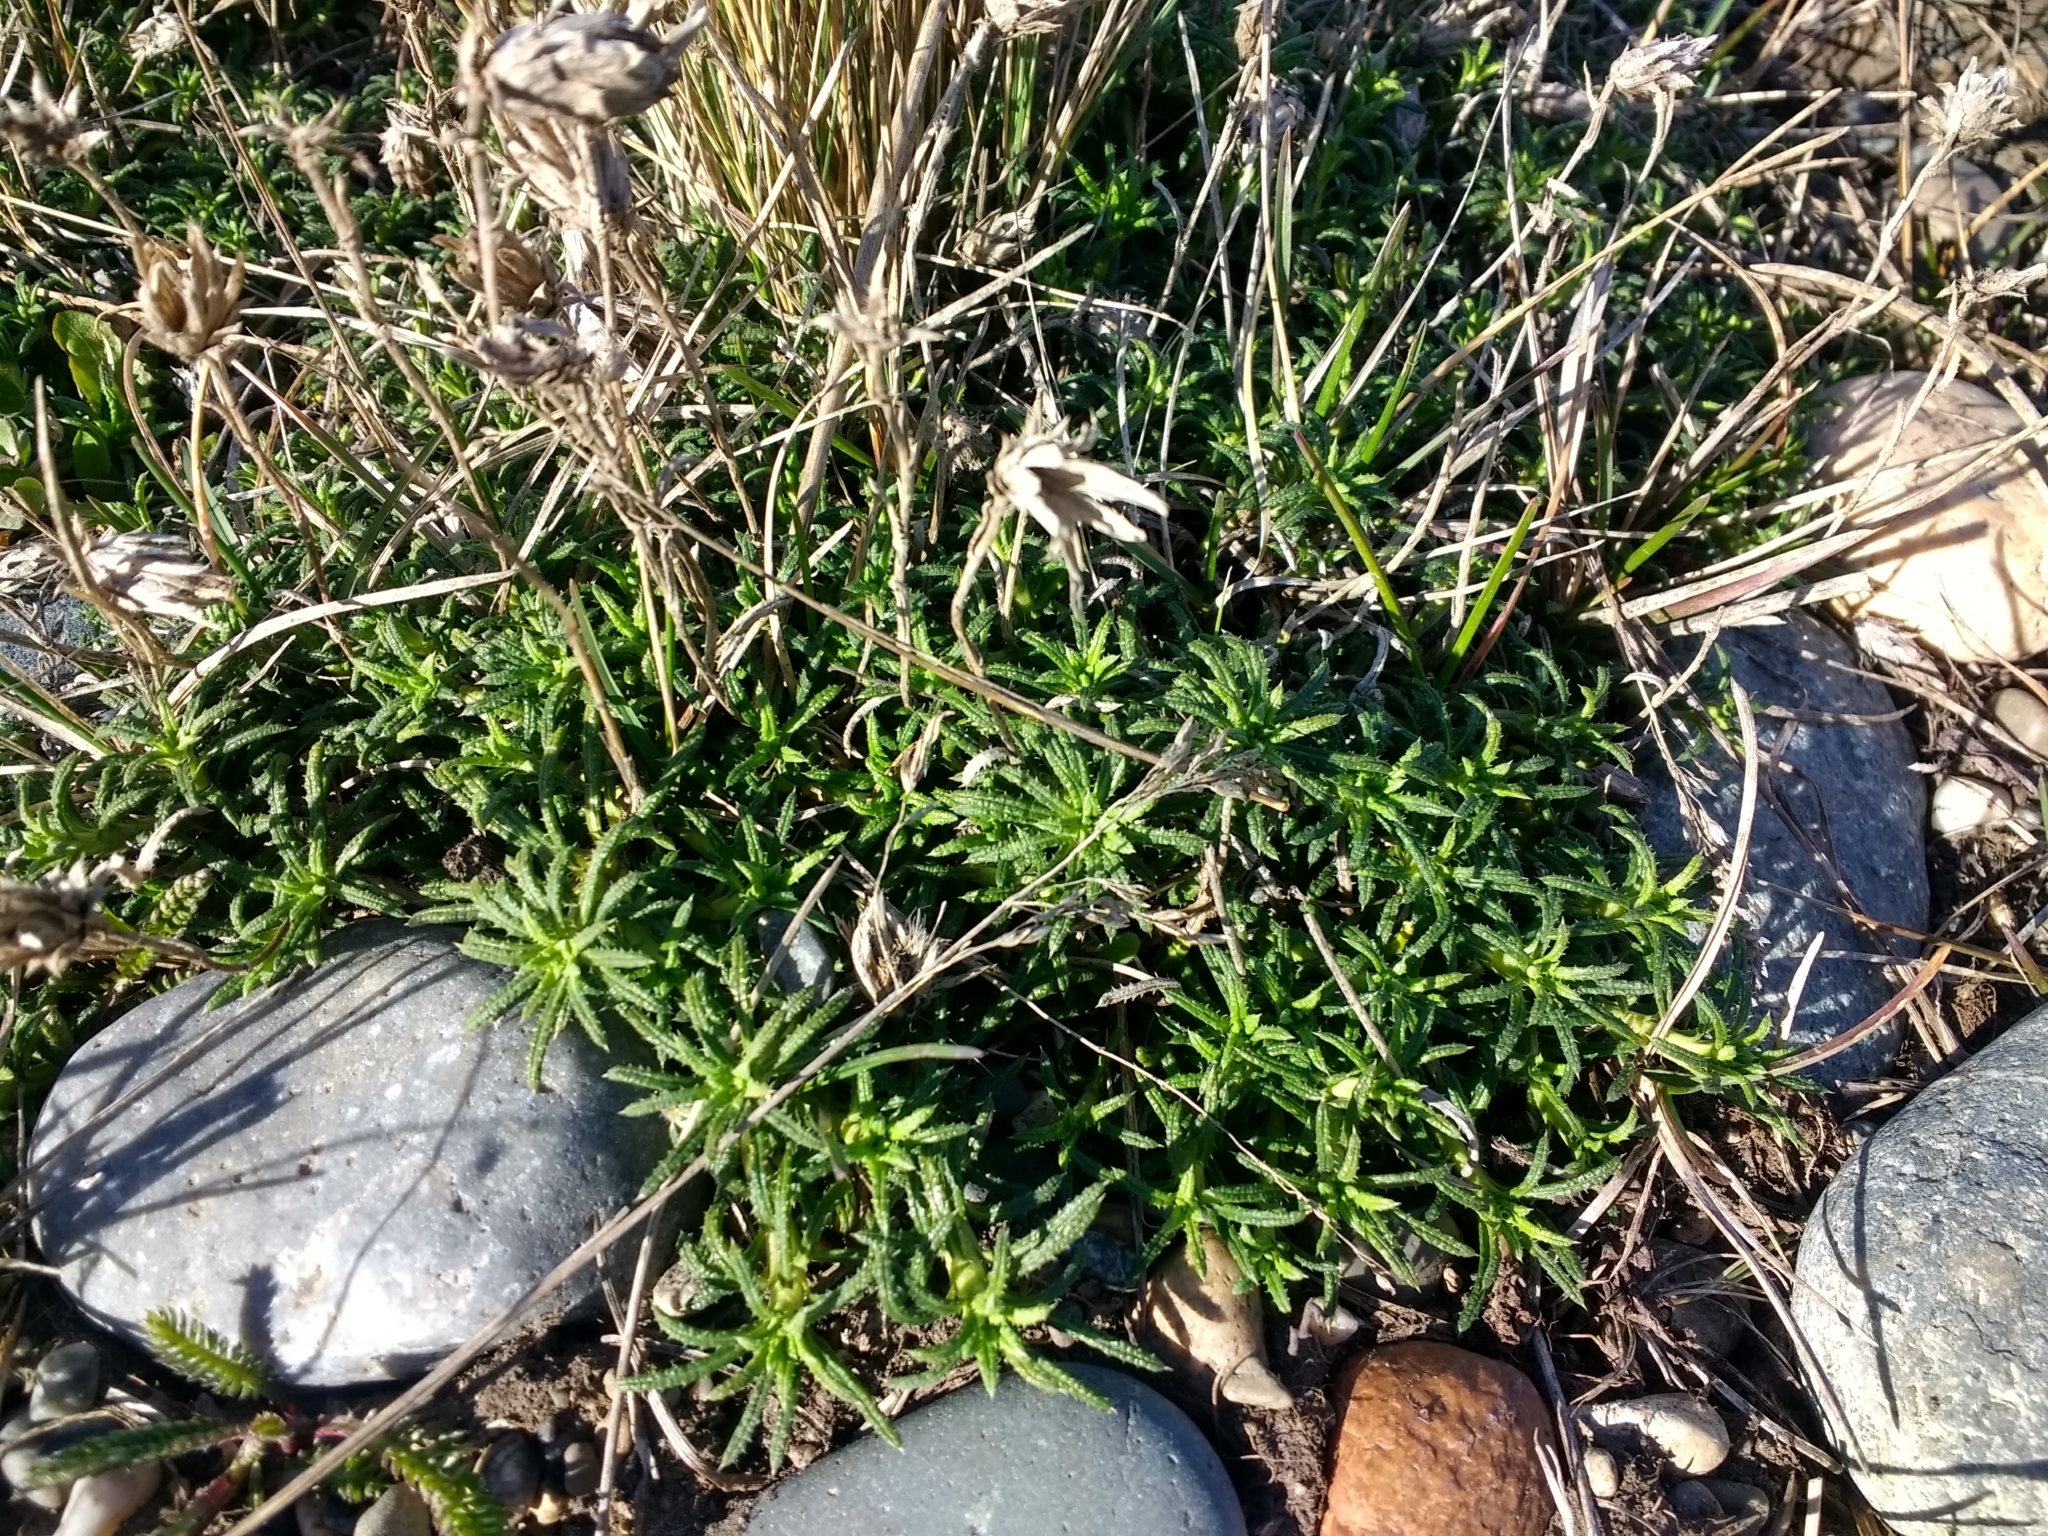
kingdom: Plantae
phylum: Tracheophyta
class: Magnoliopsida
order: Asterales
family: Asteraceae
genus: Perezia
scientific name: Perezia recurvata
